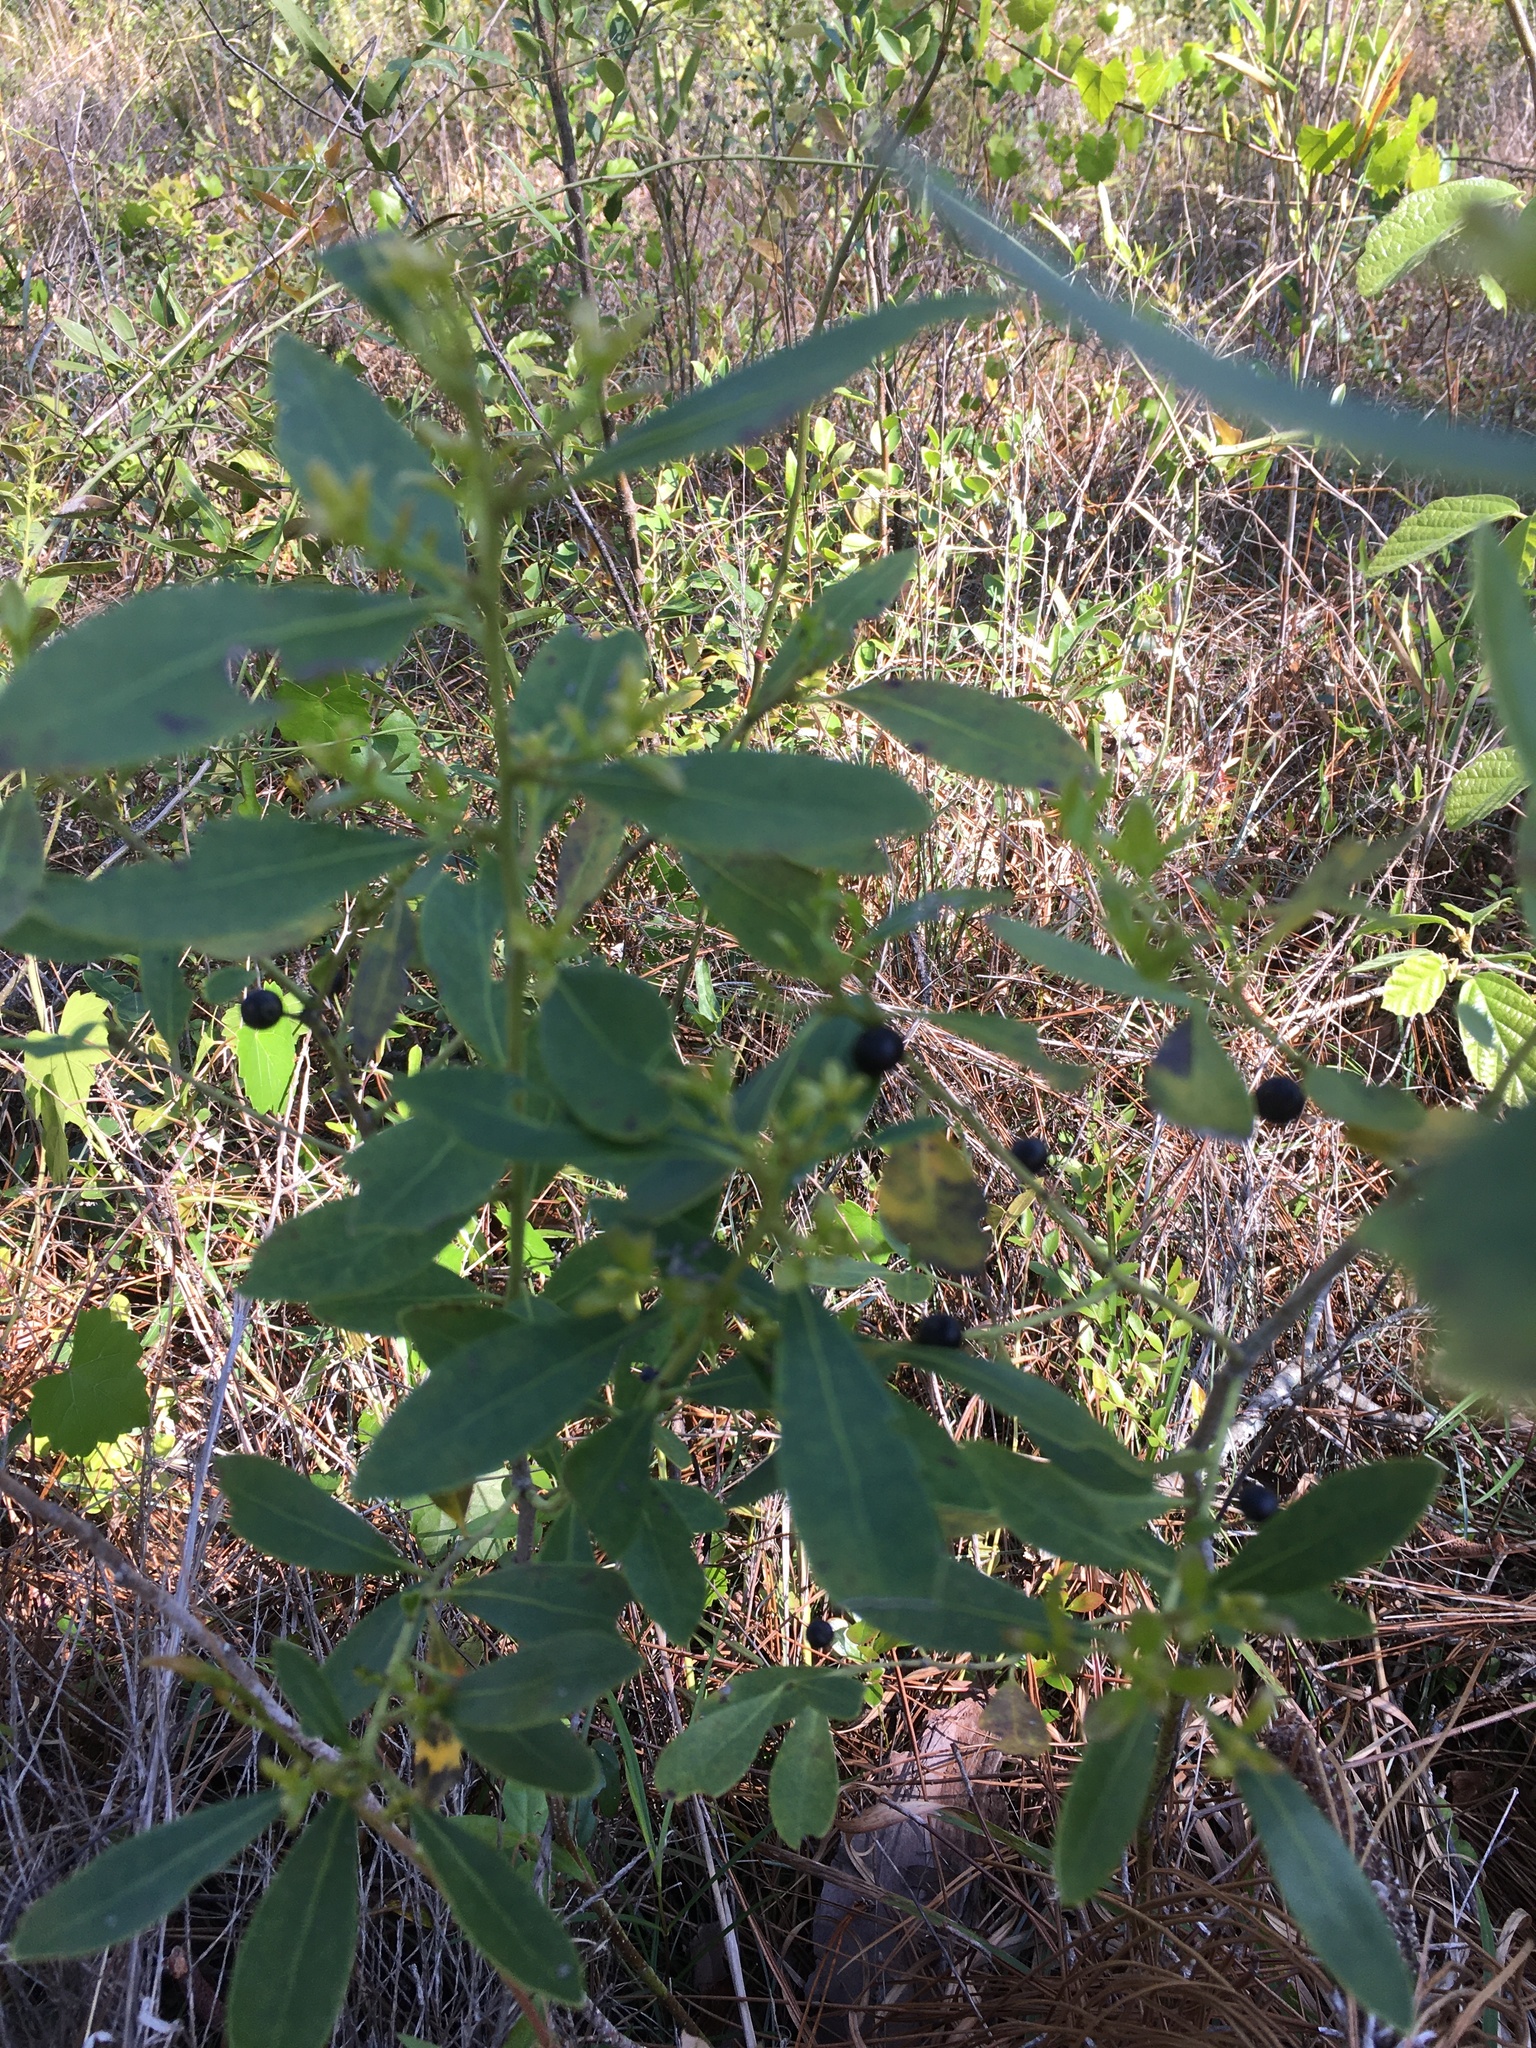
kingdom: Plantae
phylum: Tracheophyta
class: Magnoliopsida
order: Aquifoliales
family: Aquifoliaceae
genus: Ilex
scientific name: Ilex glabra
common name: Bitter gallberry
